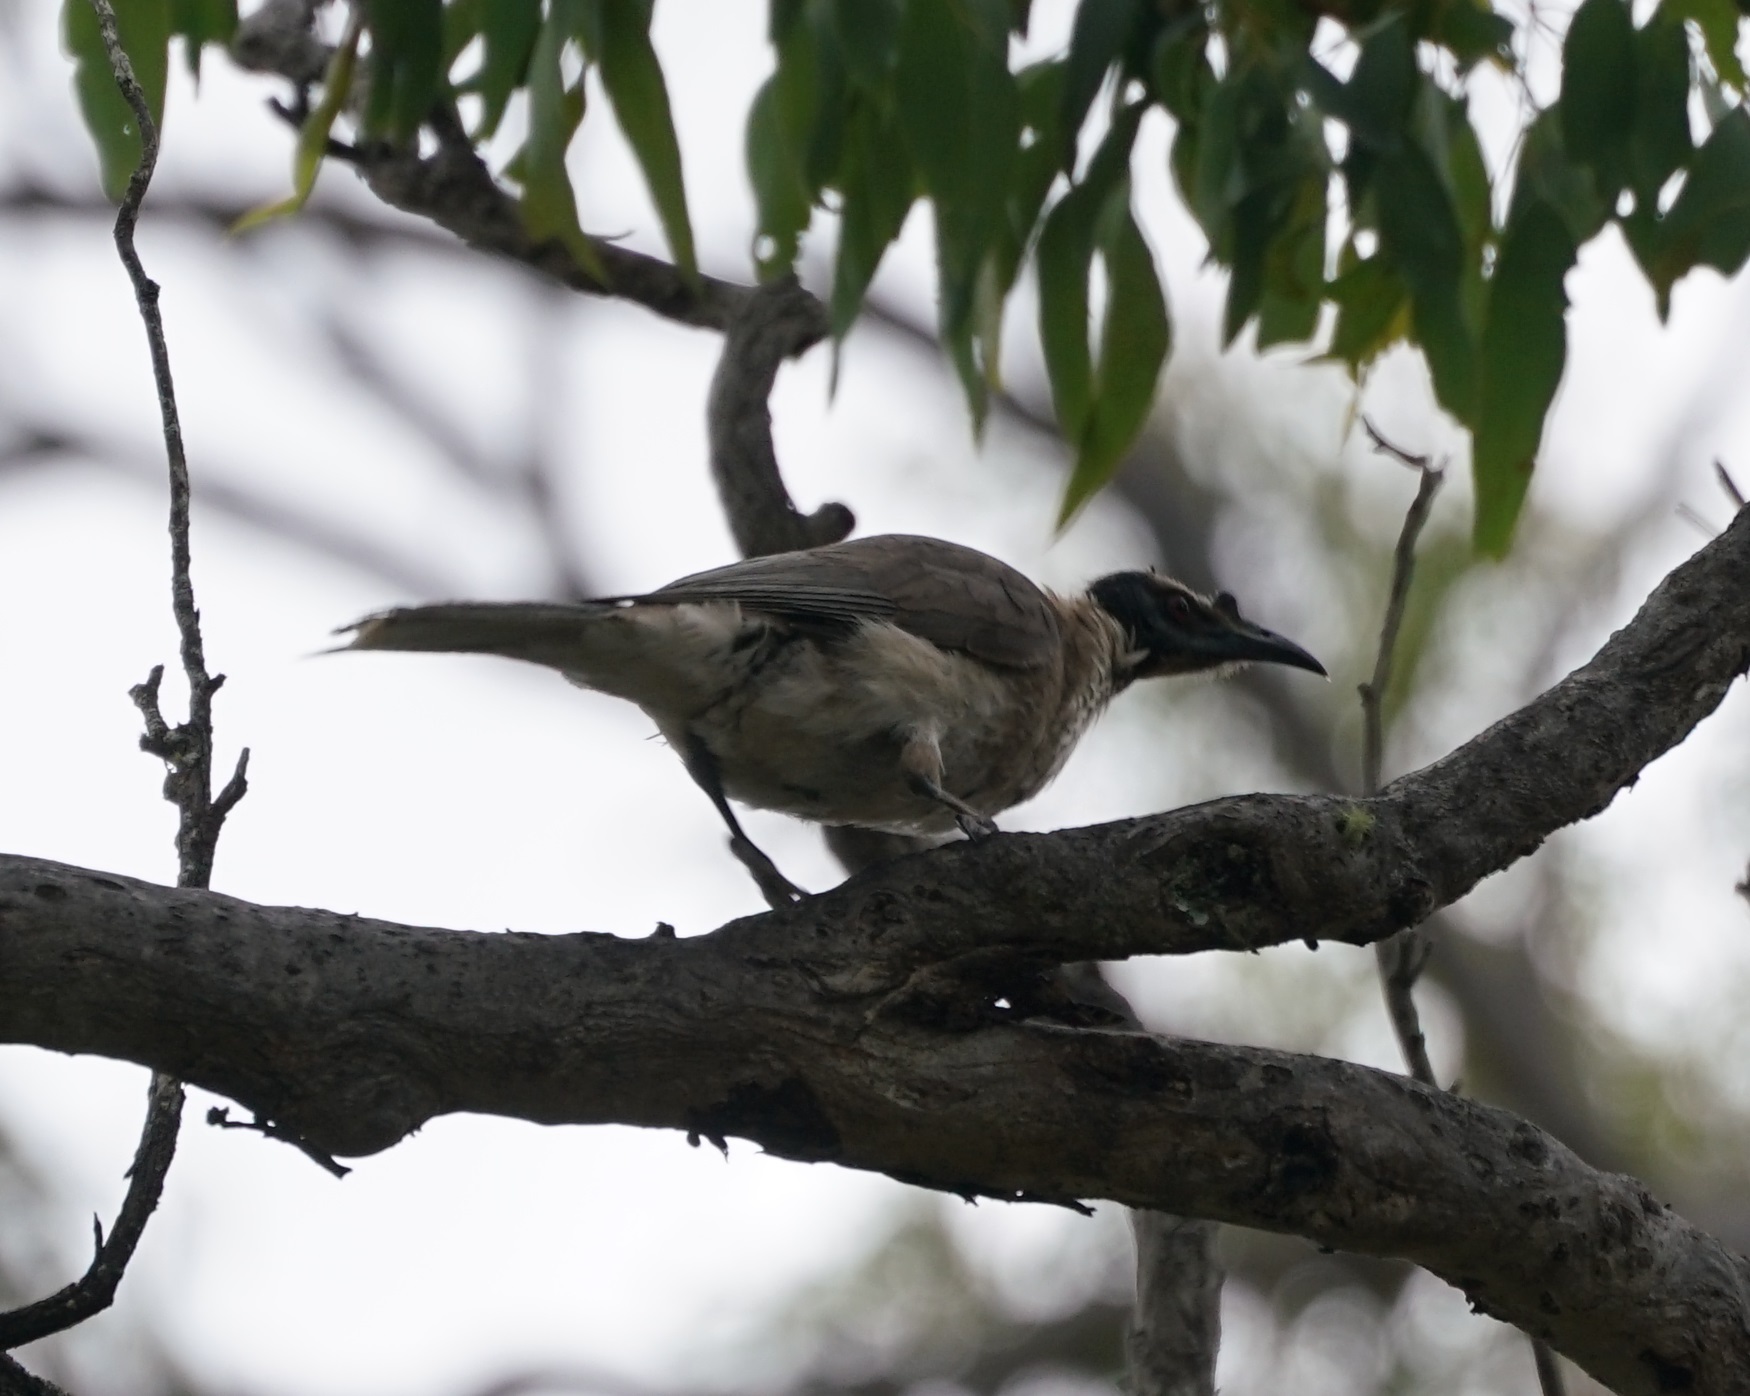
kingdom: Animalia
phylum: Chordata
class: Aves
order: Passeriformes
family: Meliphagidae
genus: Philemon
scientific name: Philemon corniculatus
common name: Noisy friarbird
